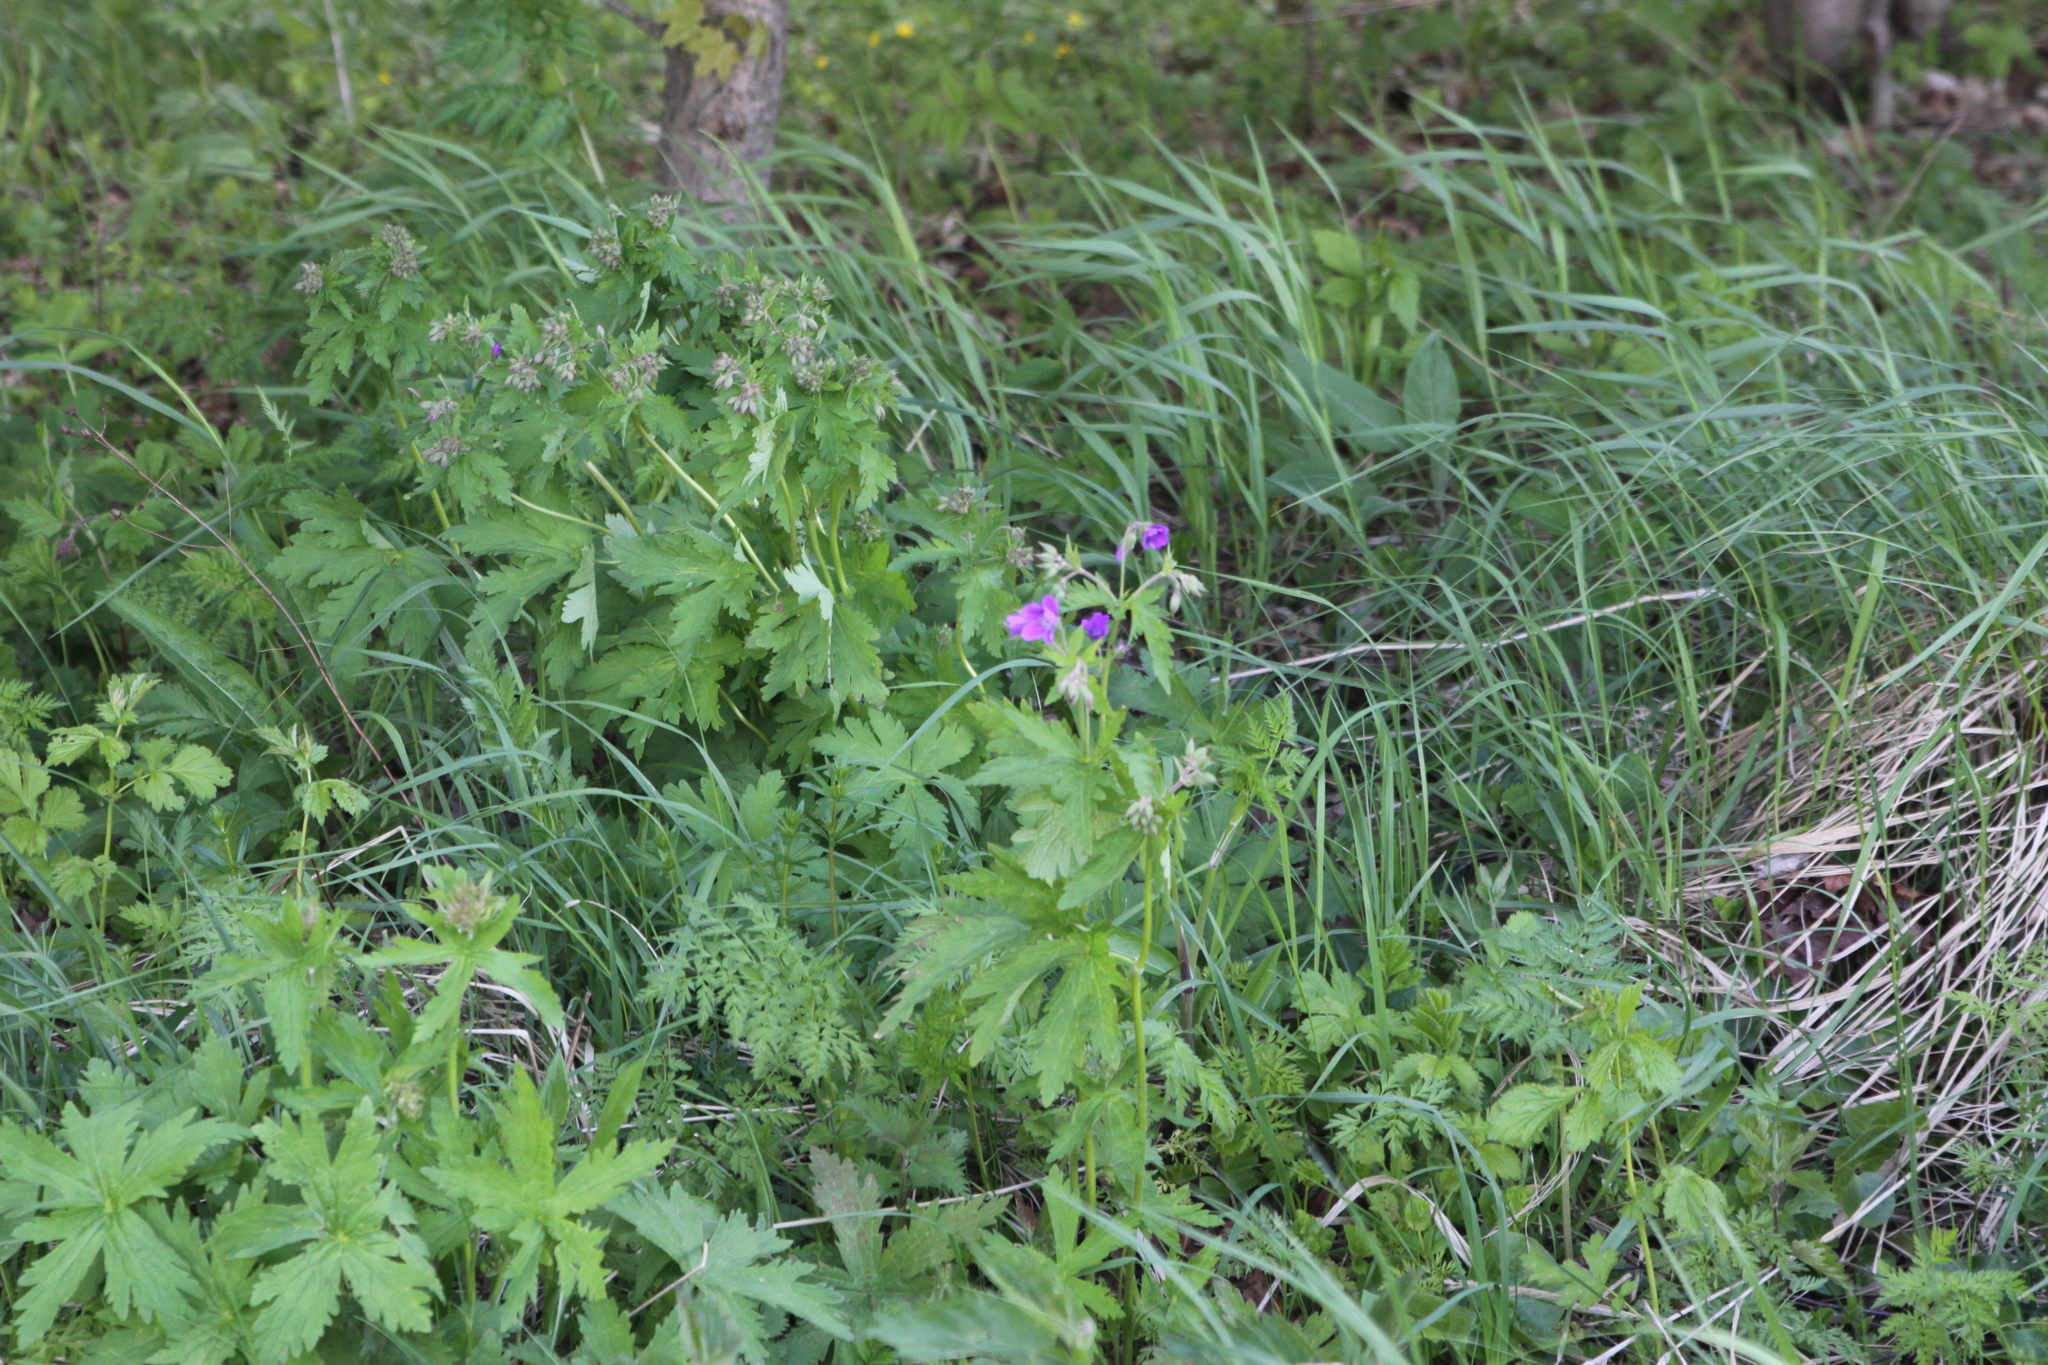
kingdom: Plantae
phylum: Tracheophyta
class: Magnoliopsida
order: Geraniales
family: Geraniaceae
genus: Geranium
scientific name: Geranium sylvaticum
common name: Wood crane's-bill
